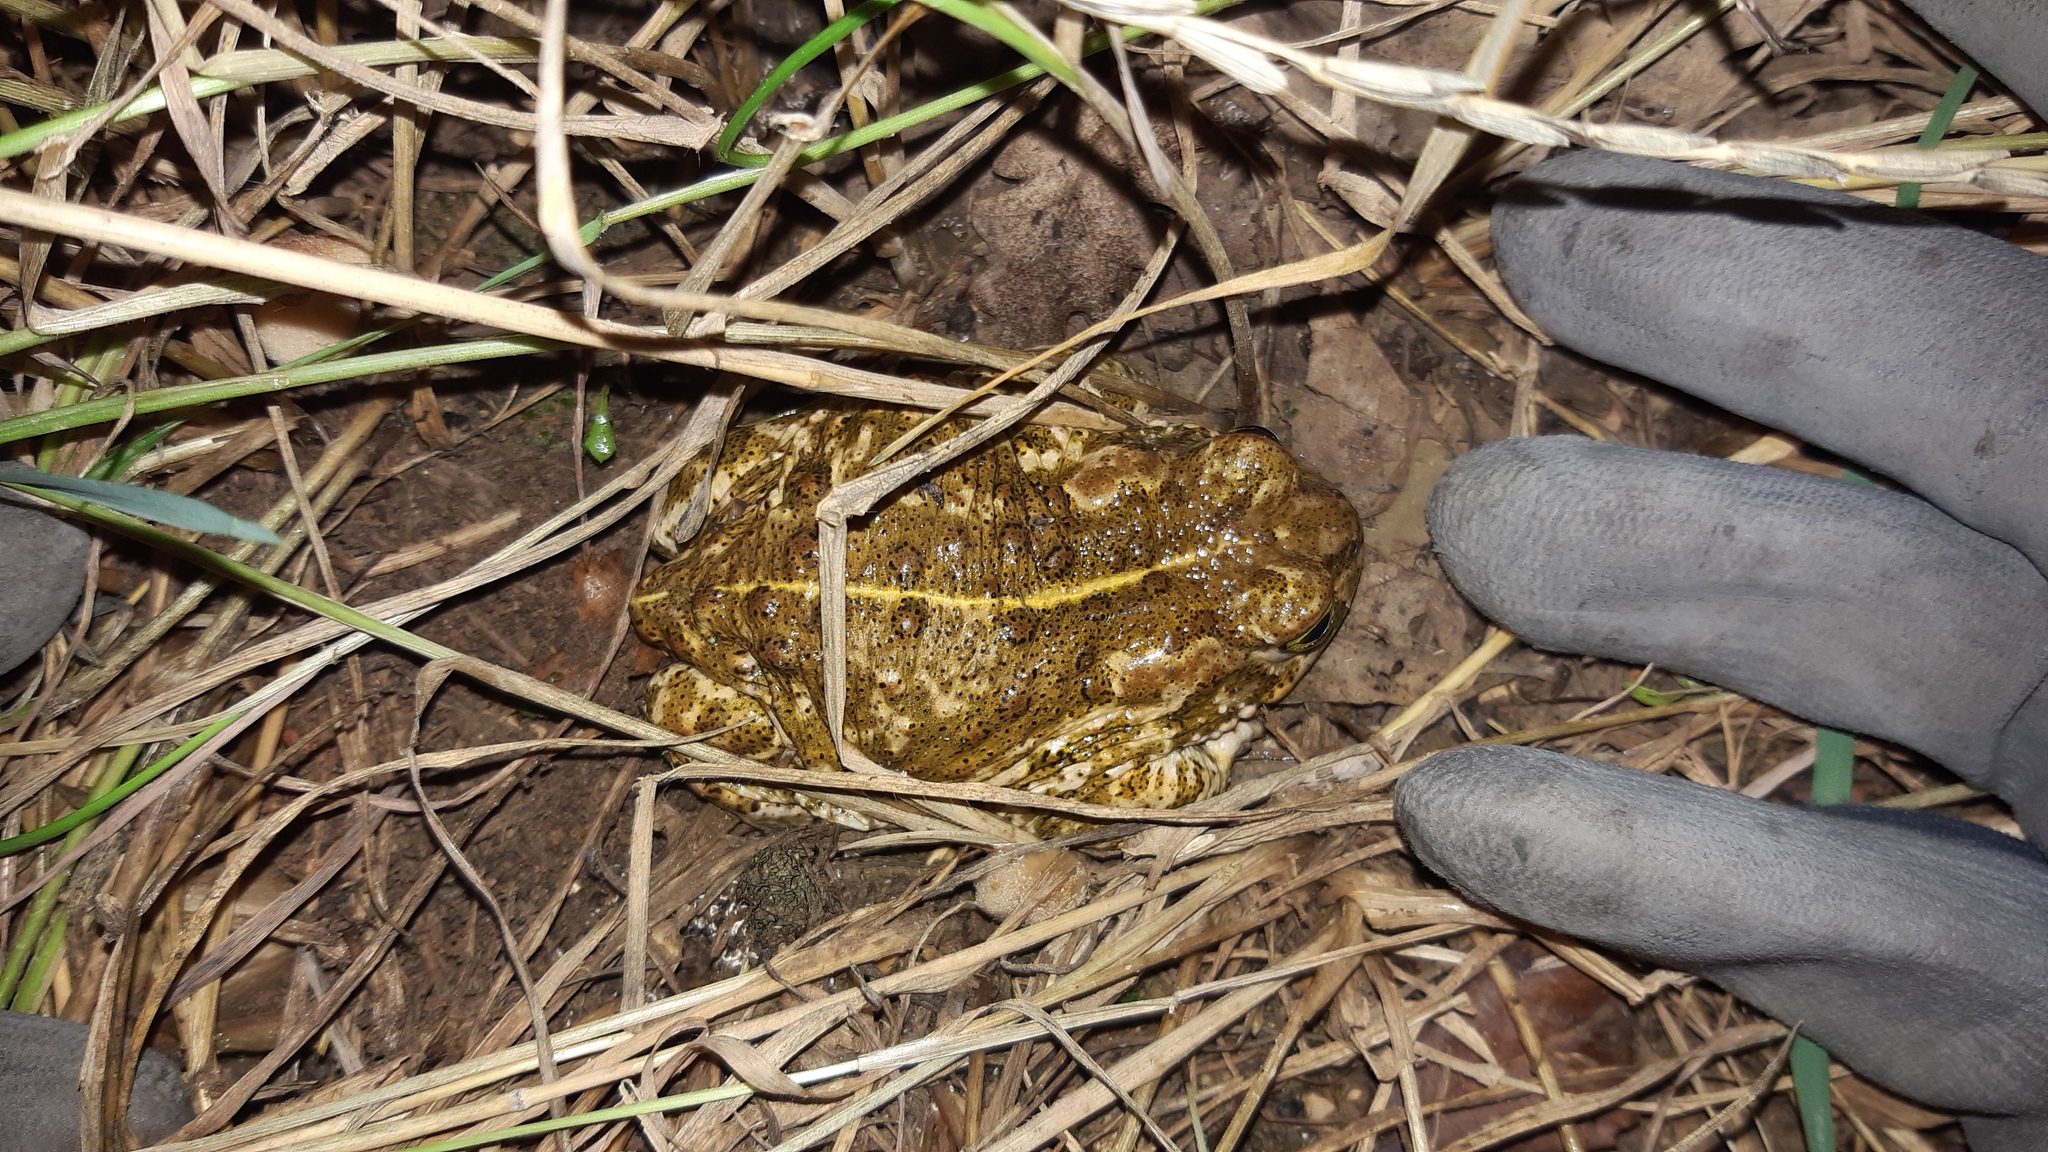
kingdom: Animalia
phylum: Chordata
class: Amphibia
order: Anura
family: Bufonidae
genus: Epidalea
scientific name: Epidalea calamita
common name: Natterjack toad
